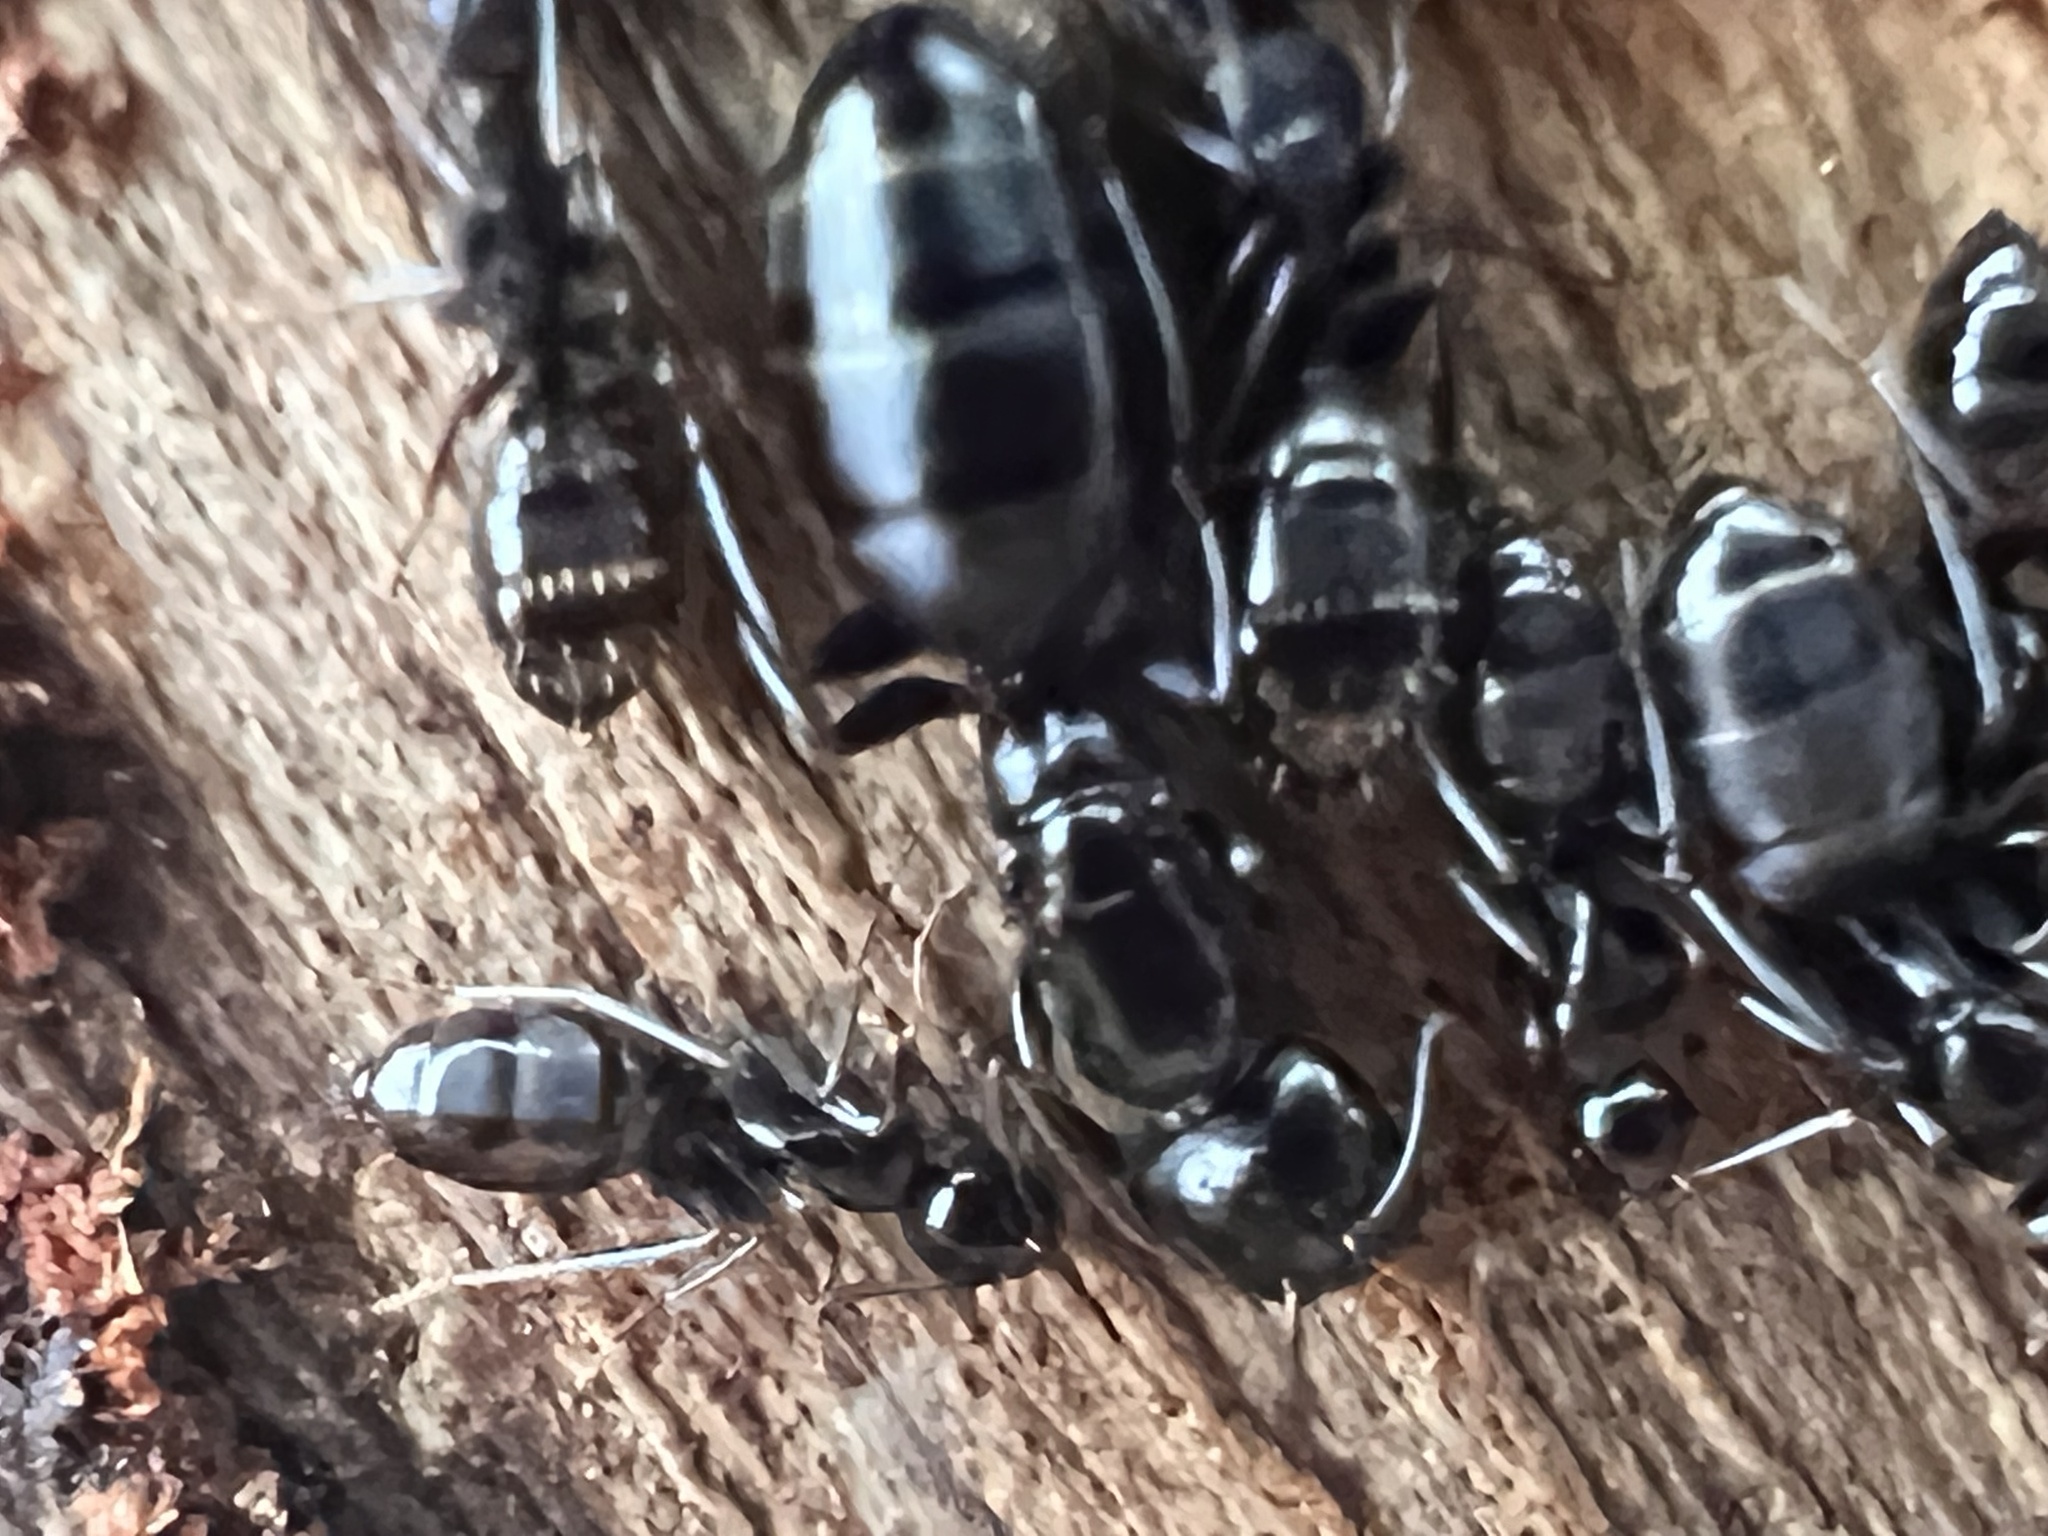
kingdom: Animalia
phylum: Arthropoda
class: Insecta
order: Hymenoptera
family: Formicidae
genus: Camponotus
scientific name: Camponotus nearcticus
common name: Smaller carpenter ant
